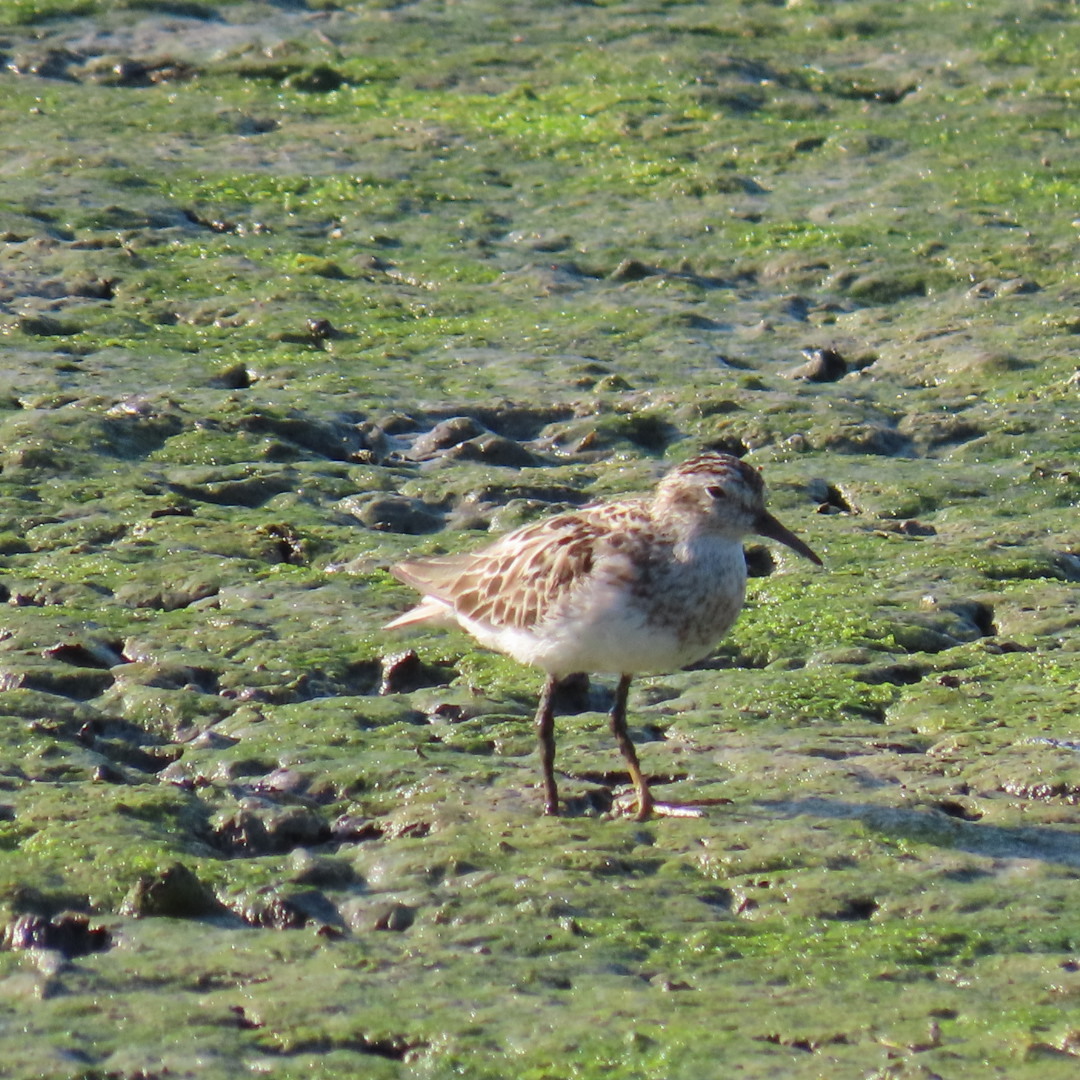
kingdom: Animalia
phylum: Chordata
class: Aves
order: Charadriiformes
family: Scolopacidae
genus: Calidris
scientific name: Calidris minutilla
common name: Least sandpiper
